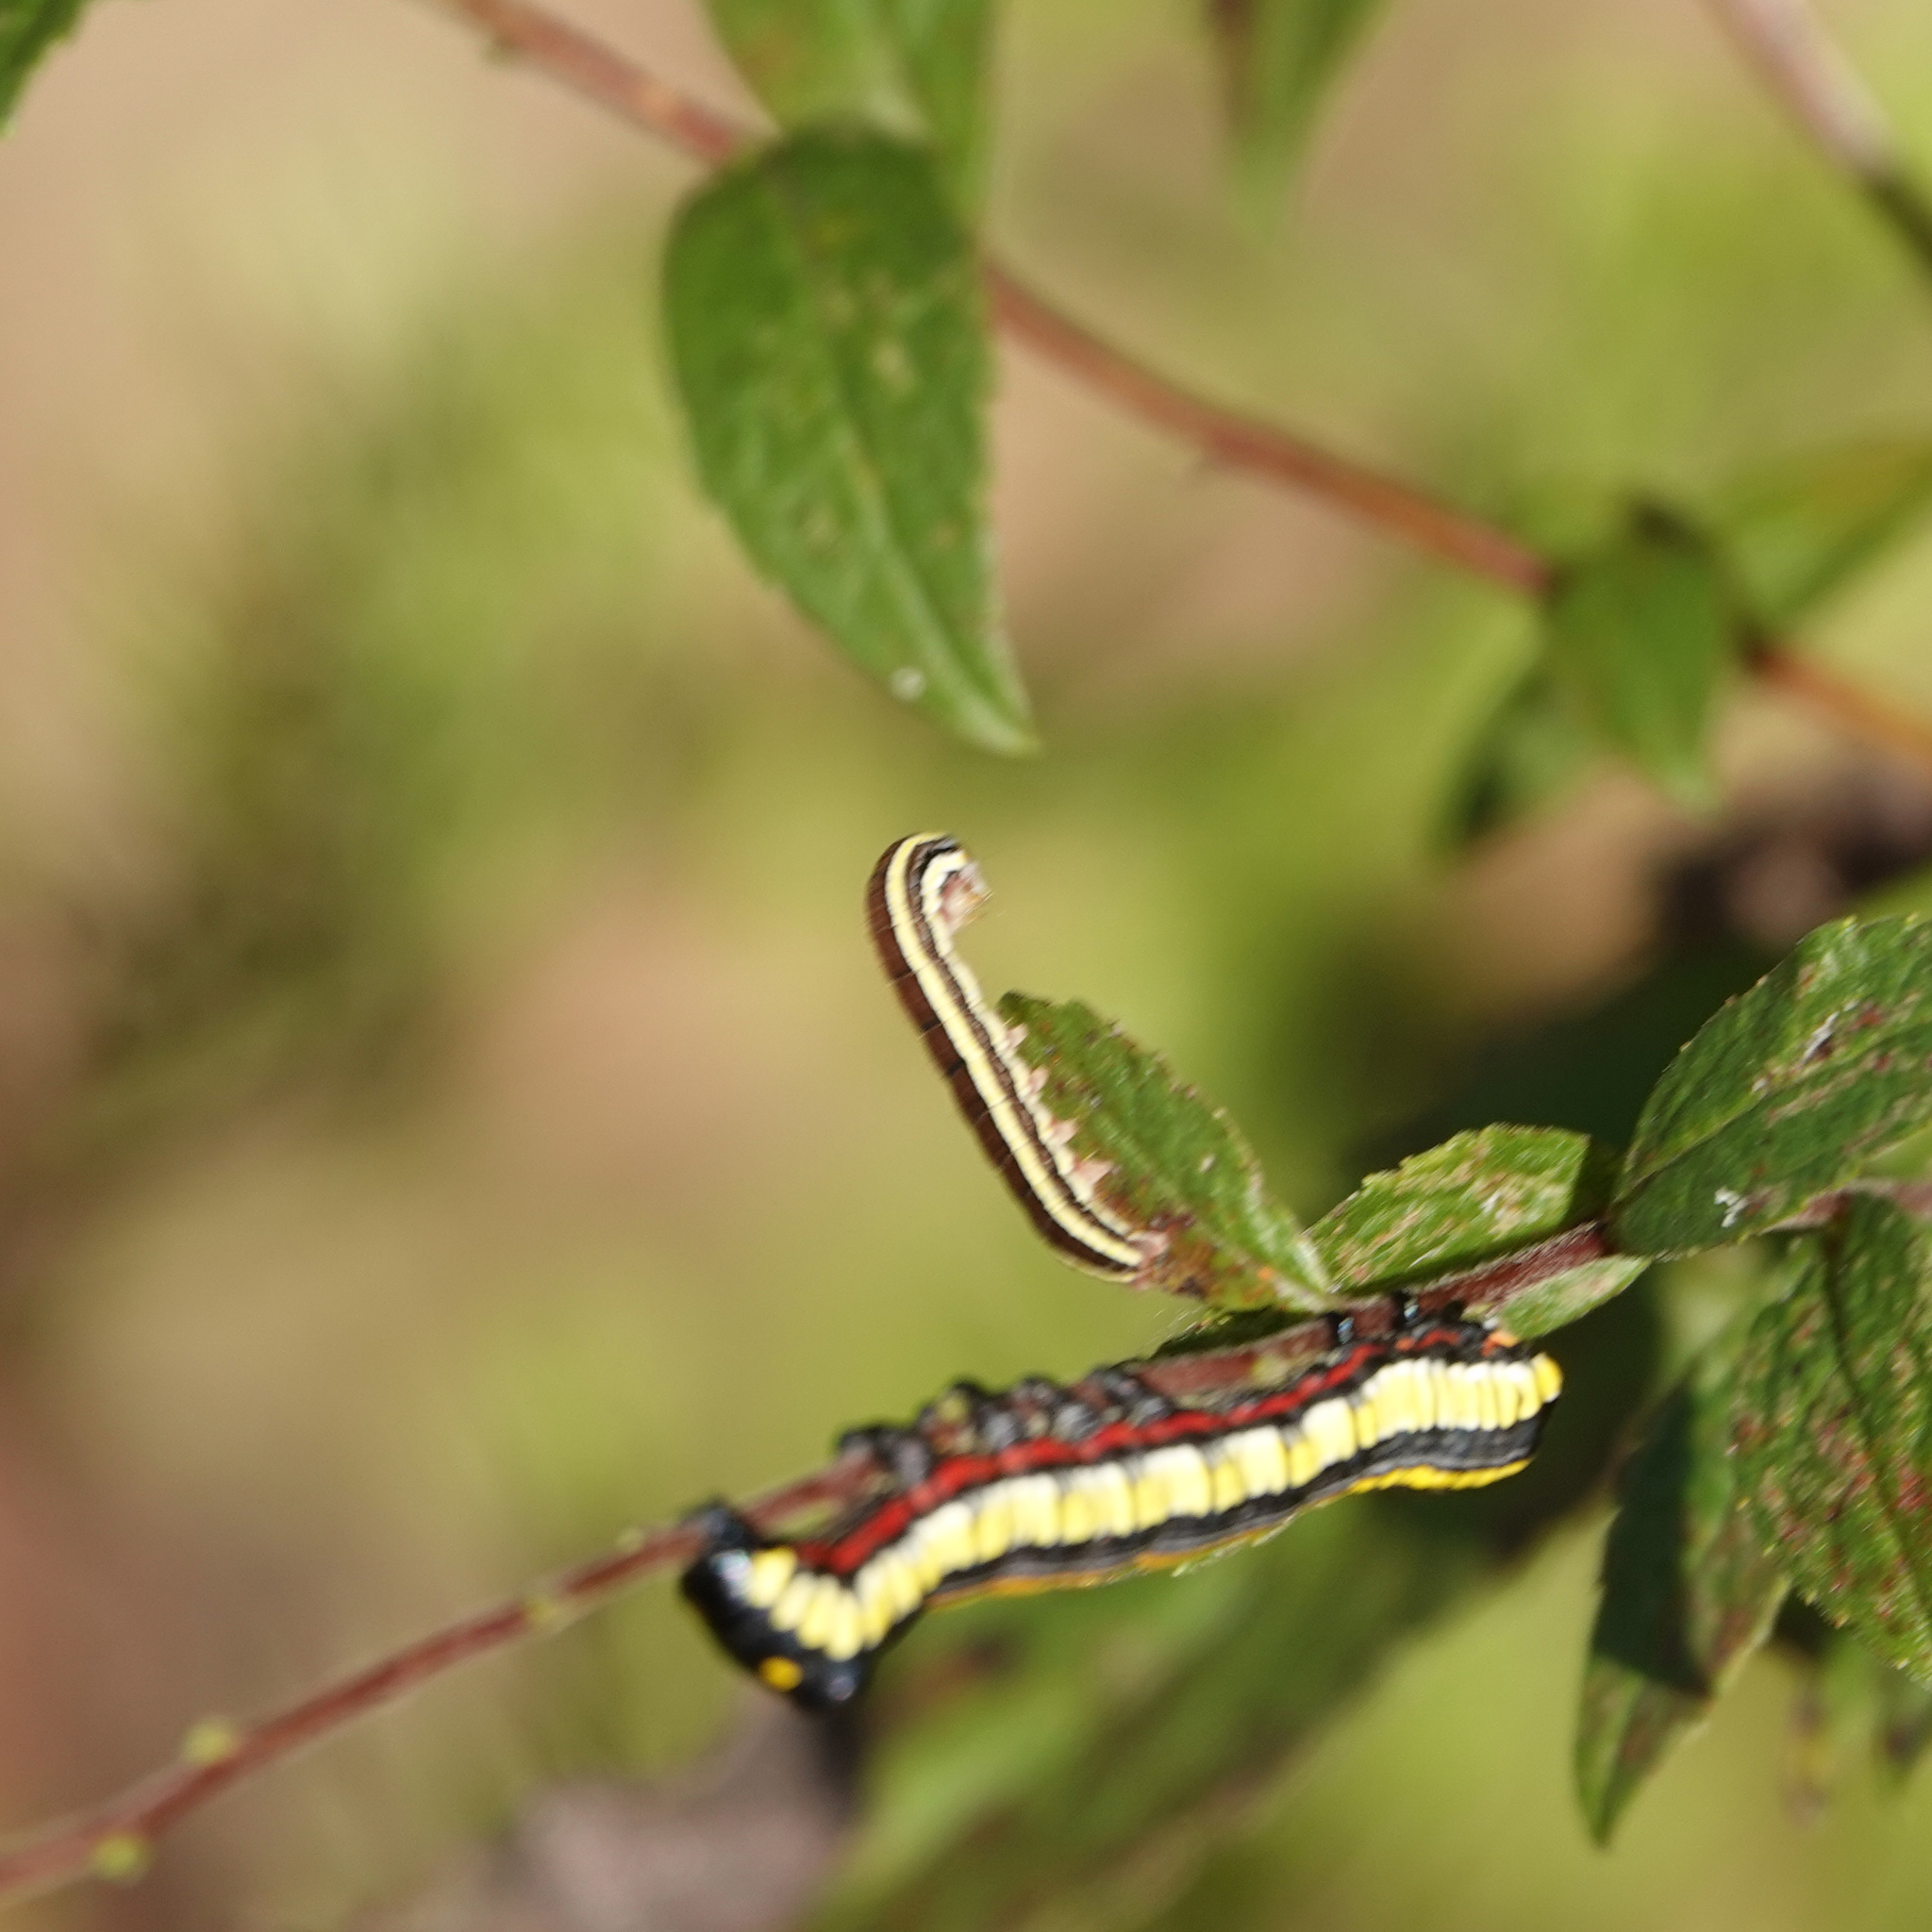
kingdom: Animalia
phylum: Arthropoda
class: Insecta
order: Lepidoptera
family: Noctuidae
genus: Cucullia
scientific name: Cucullia convexipennis
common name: Brown-hooded owlet
